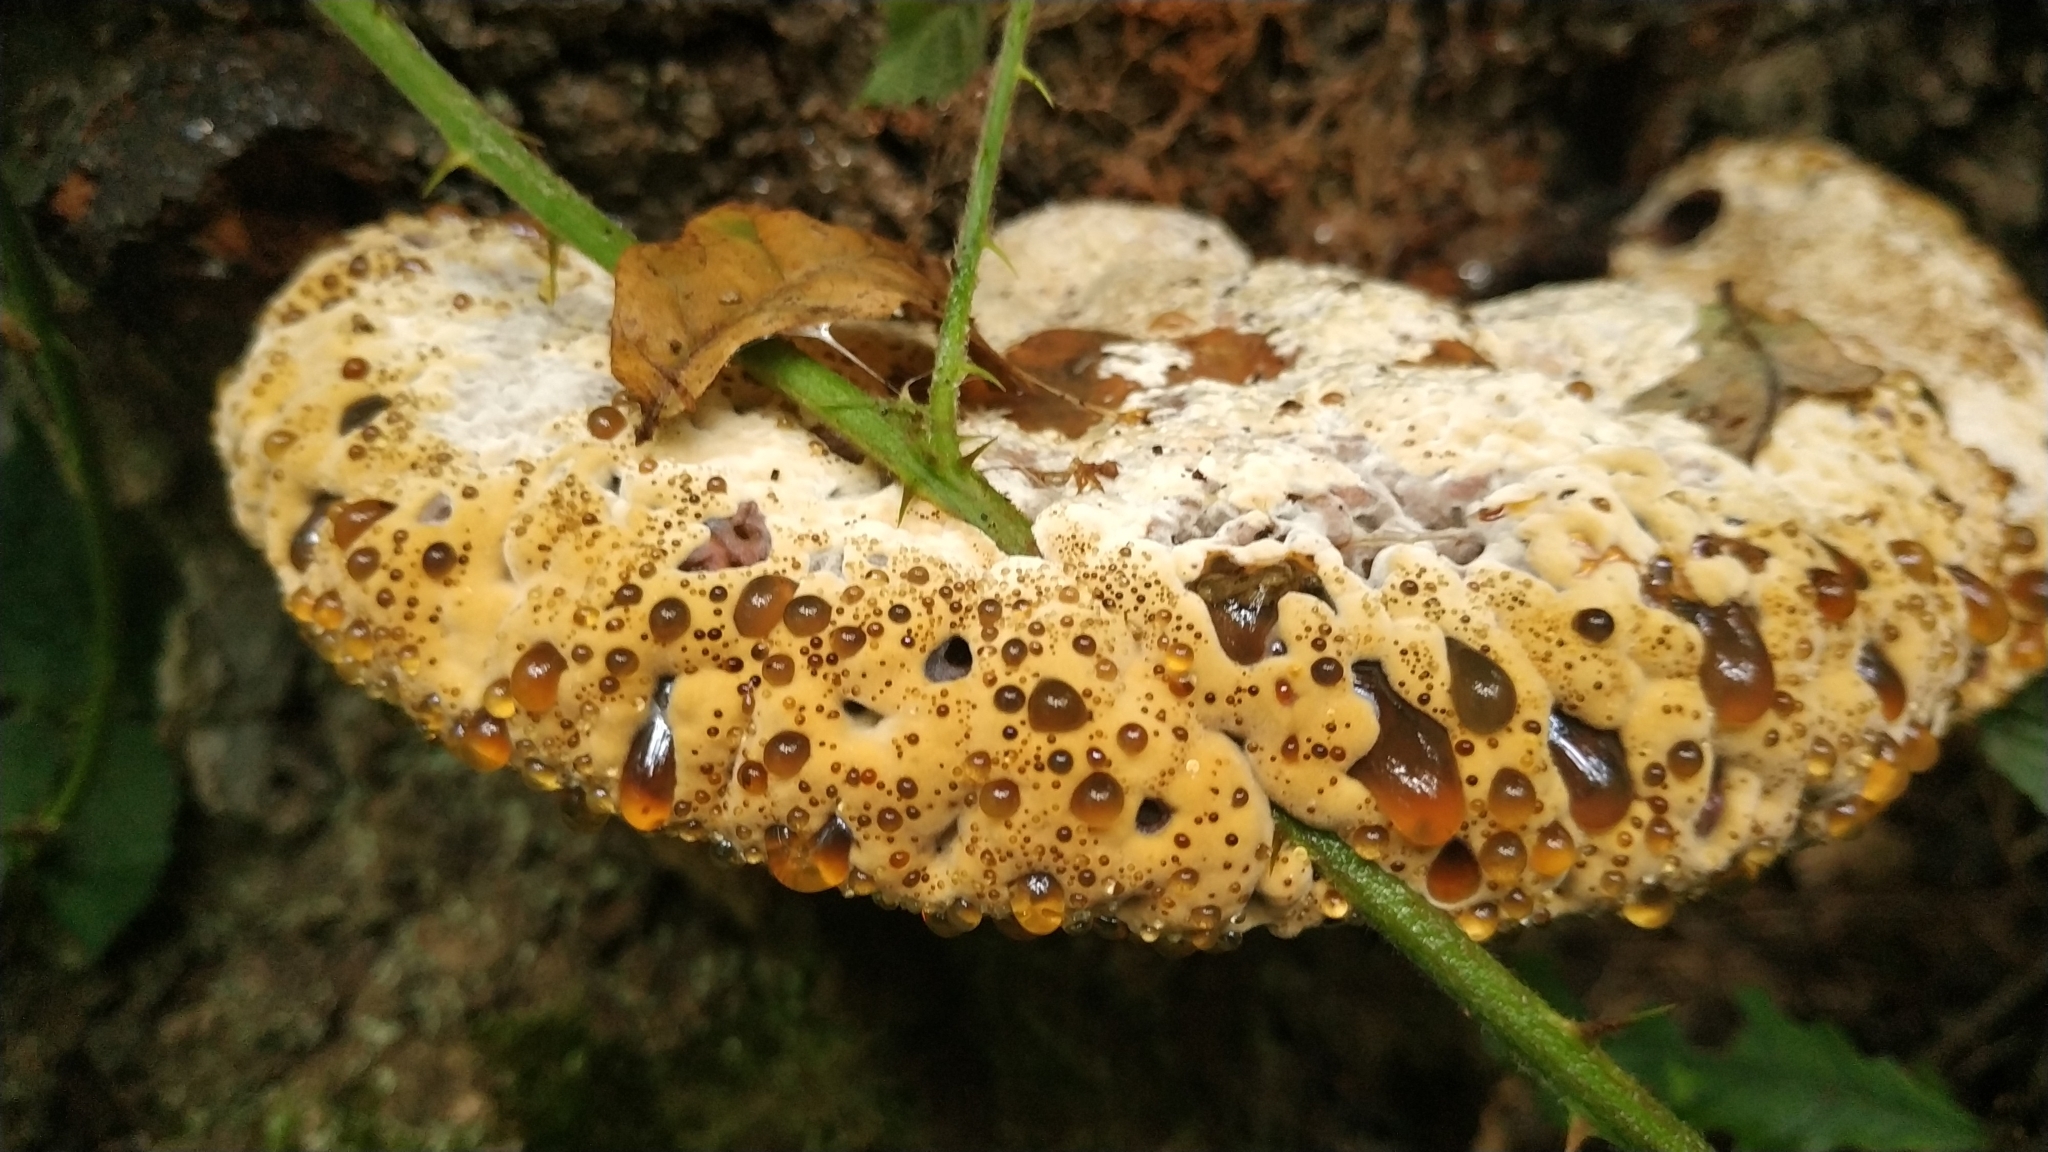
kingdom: Fungi
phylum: Basidiomycota
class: Agaricomycetes
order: Hymenochaetales
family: Hymenochaetaceae
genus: Pseudoinonotus
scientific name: Pseudoinonotus dryadeus
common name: Oak bracket
